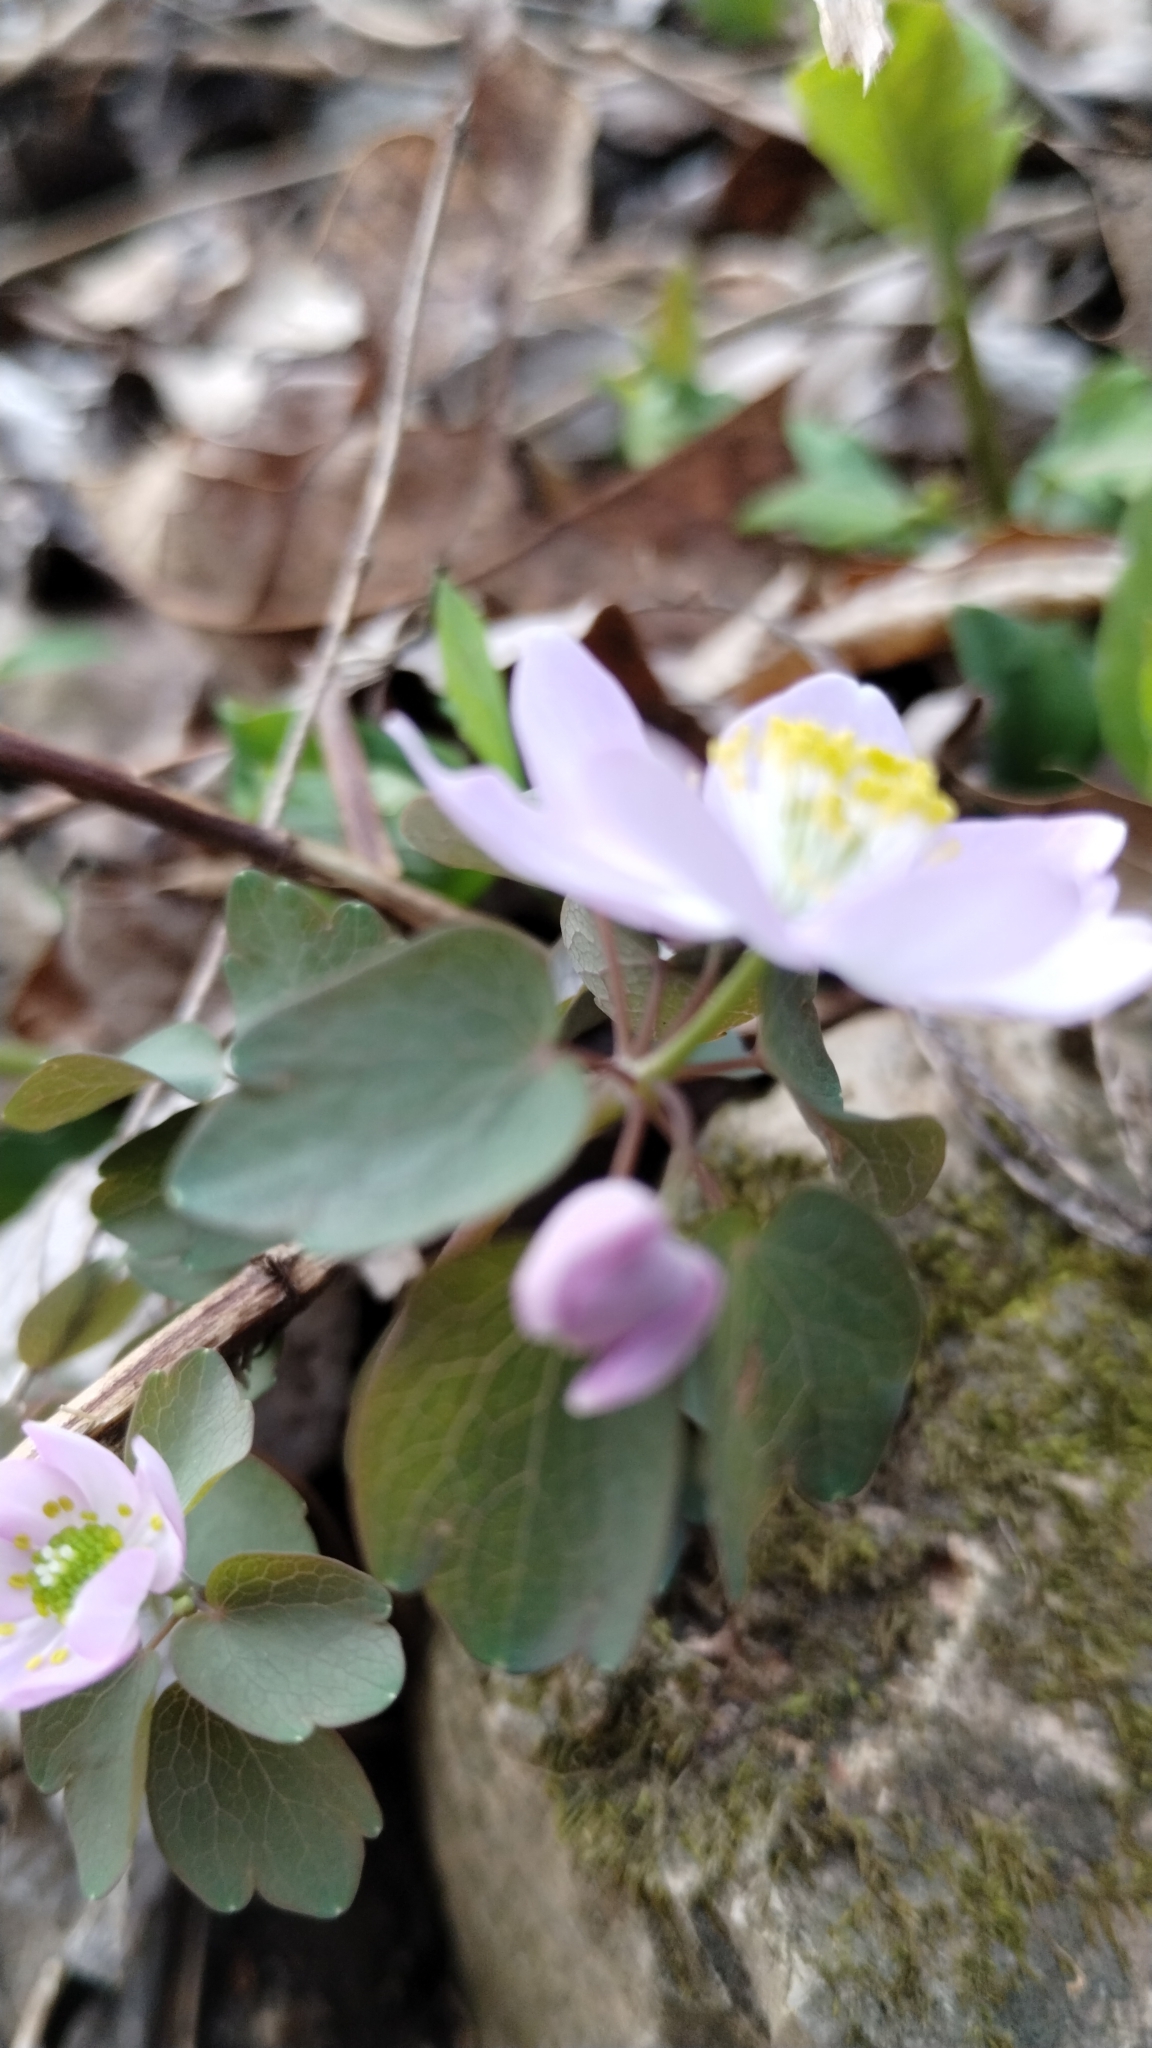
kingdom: Plantae
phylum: Tracheophyta
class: Magnoliopsida
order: Ranunculales
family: Ranunculaceae
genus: Thalictrum
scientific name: Thalictrum thalictroides
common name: Rue-anemone
